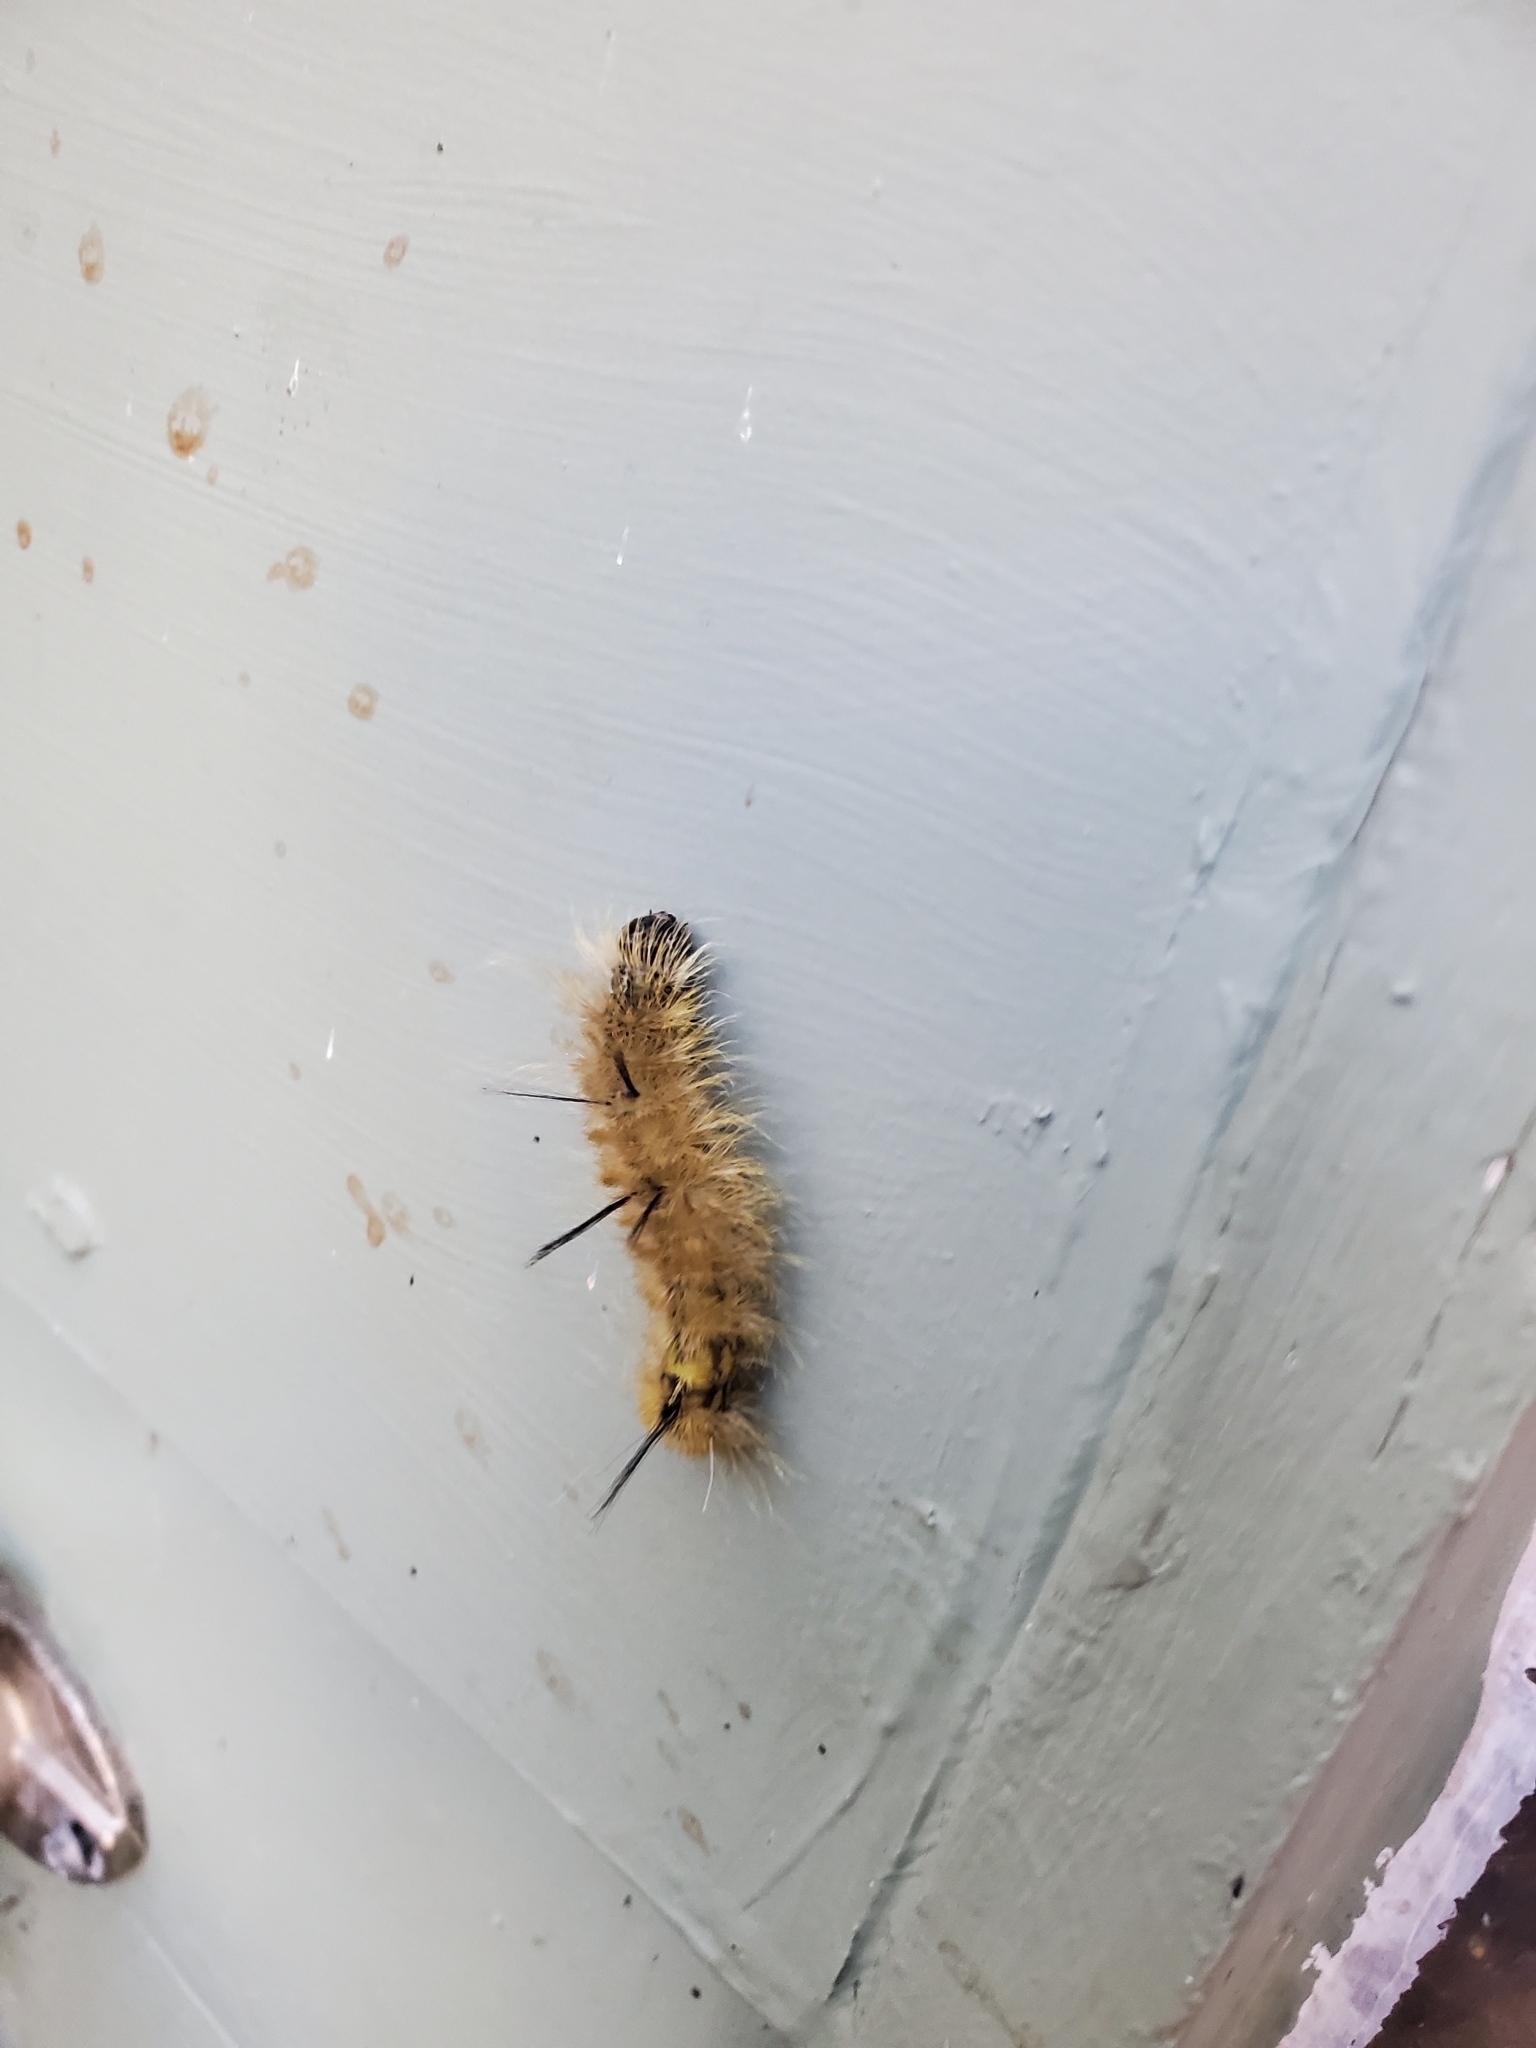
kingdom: Animalia
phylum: Arthropoda
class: Insecta
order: Lepidoptera
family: Noctuidae
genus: Acronicta
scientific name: Acronicta americana
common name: American dagger
